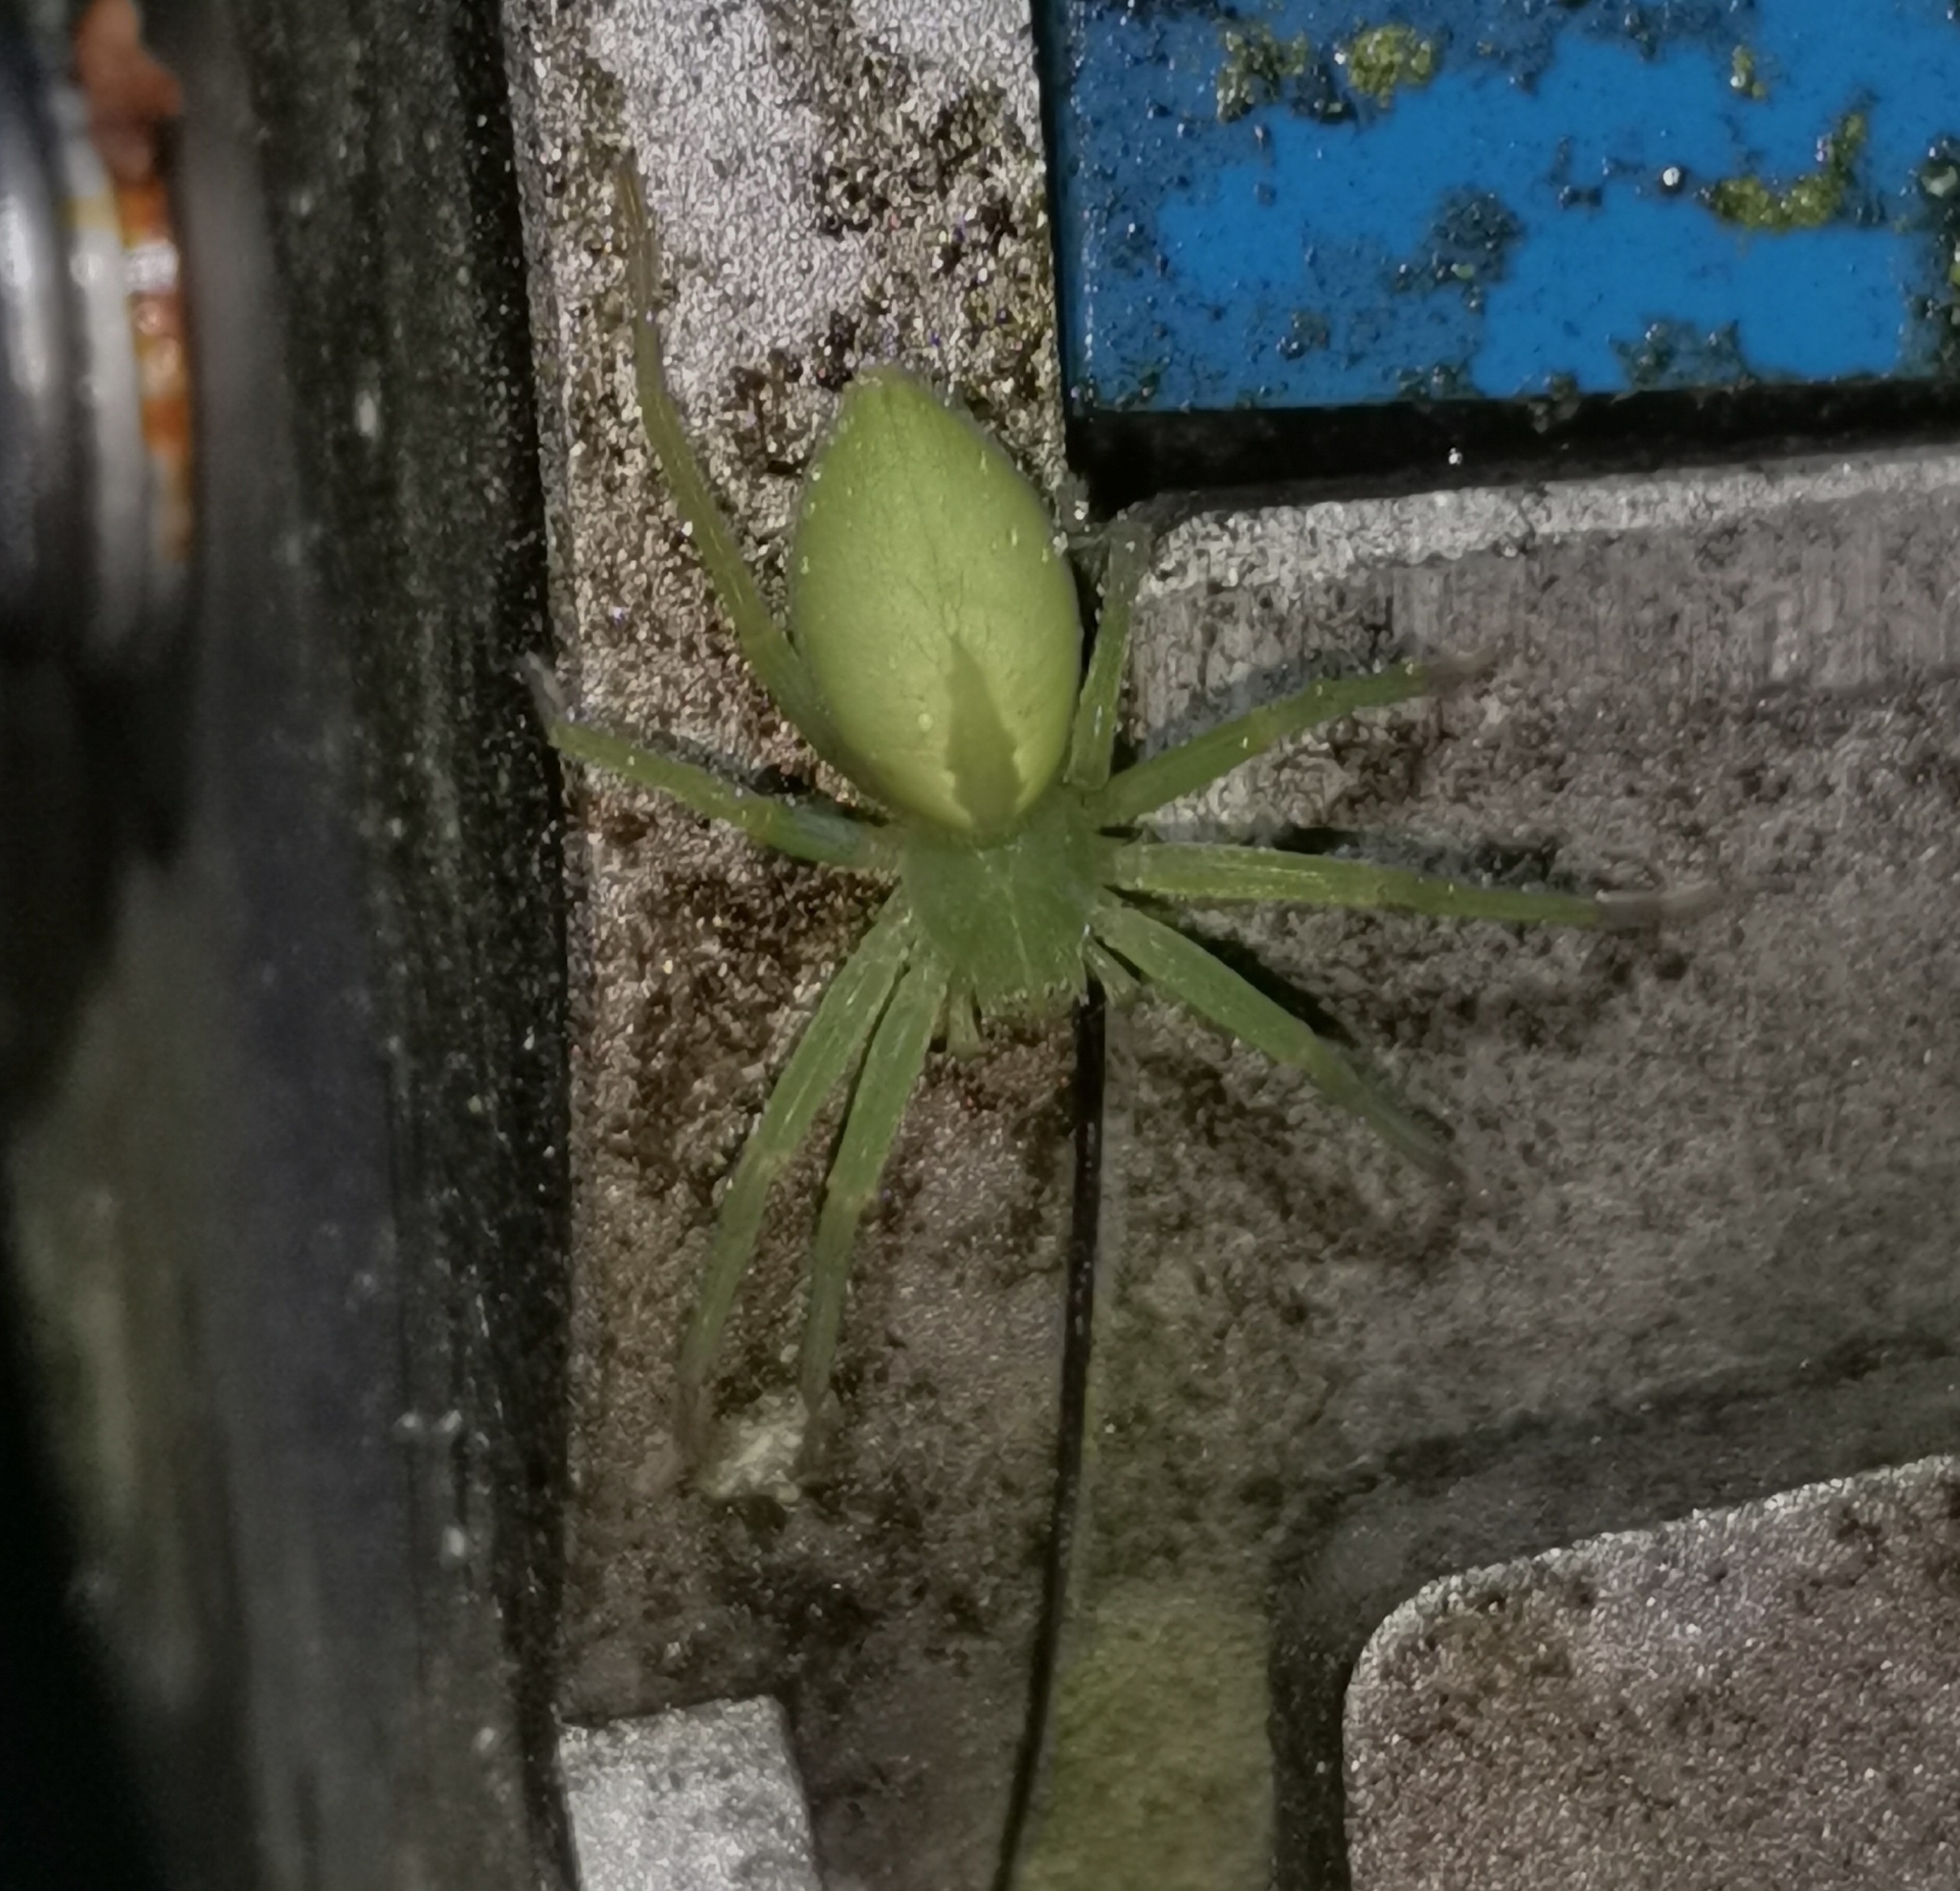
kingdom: Animalia
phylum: Arthropoda
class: Arachnida
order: Araneae
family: Sparassidae
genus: Micrommata
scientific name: Micrommata virescens
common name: Green spider
